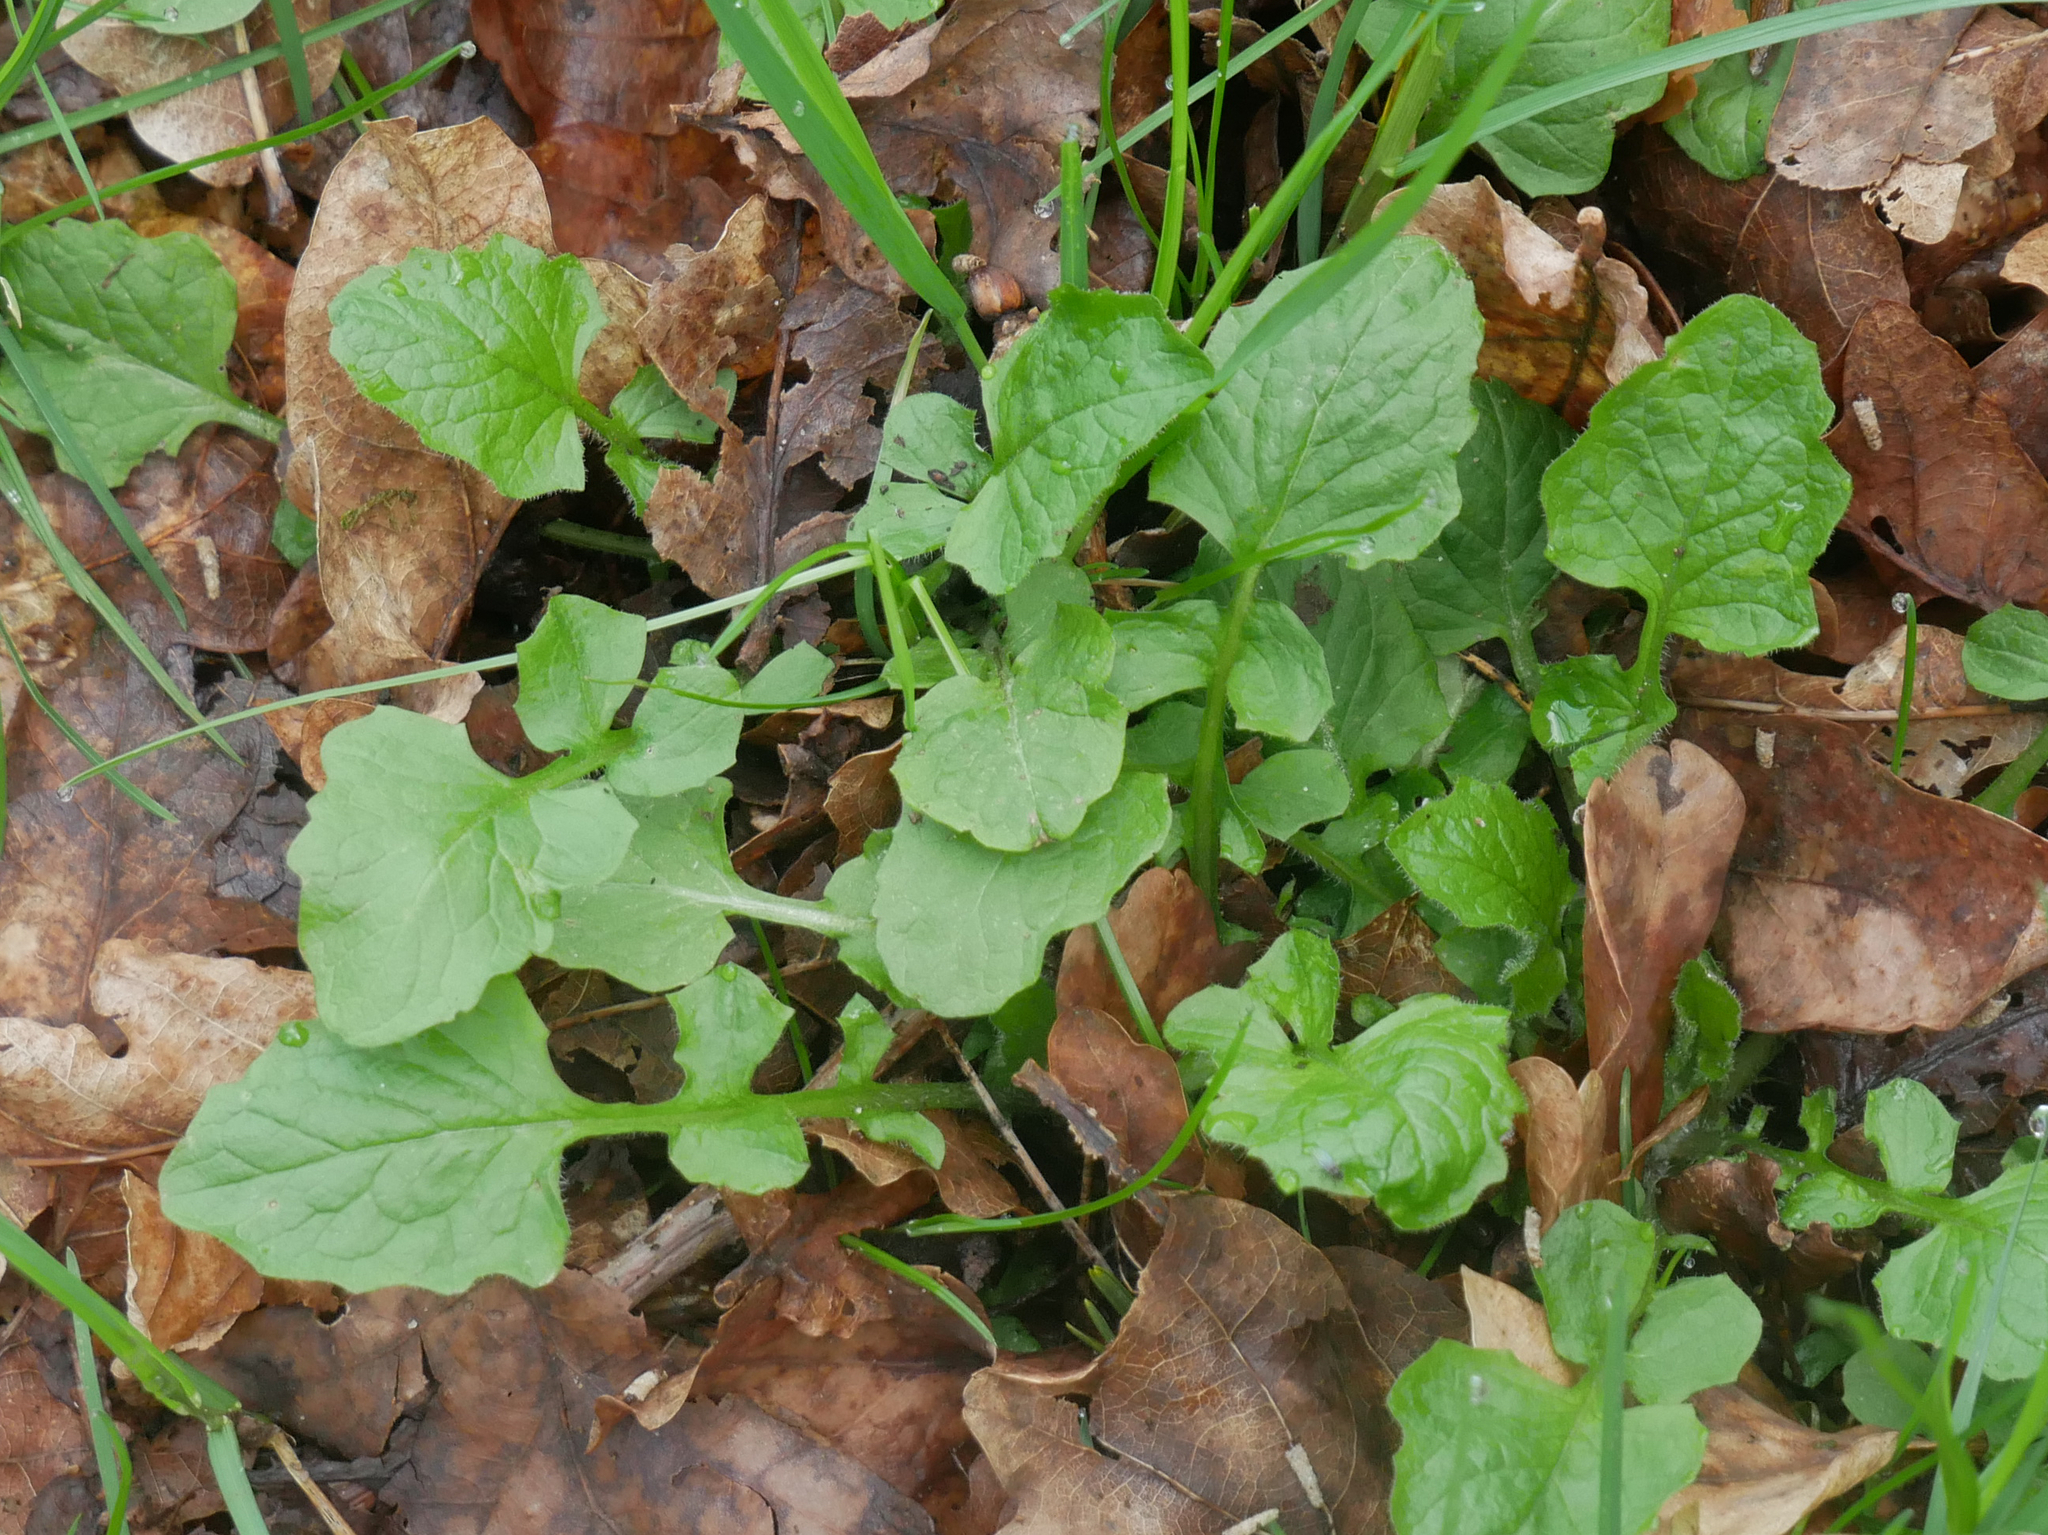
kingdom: Plantae
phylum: Tracheophyta
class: Magnoliopsida
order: Asterales
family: Asteraceae
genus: Lapsana
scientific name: Lapsana communis
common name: Nipplewort
